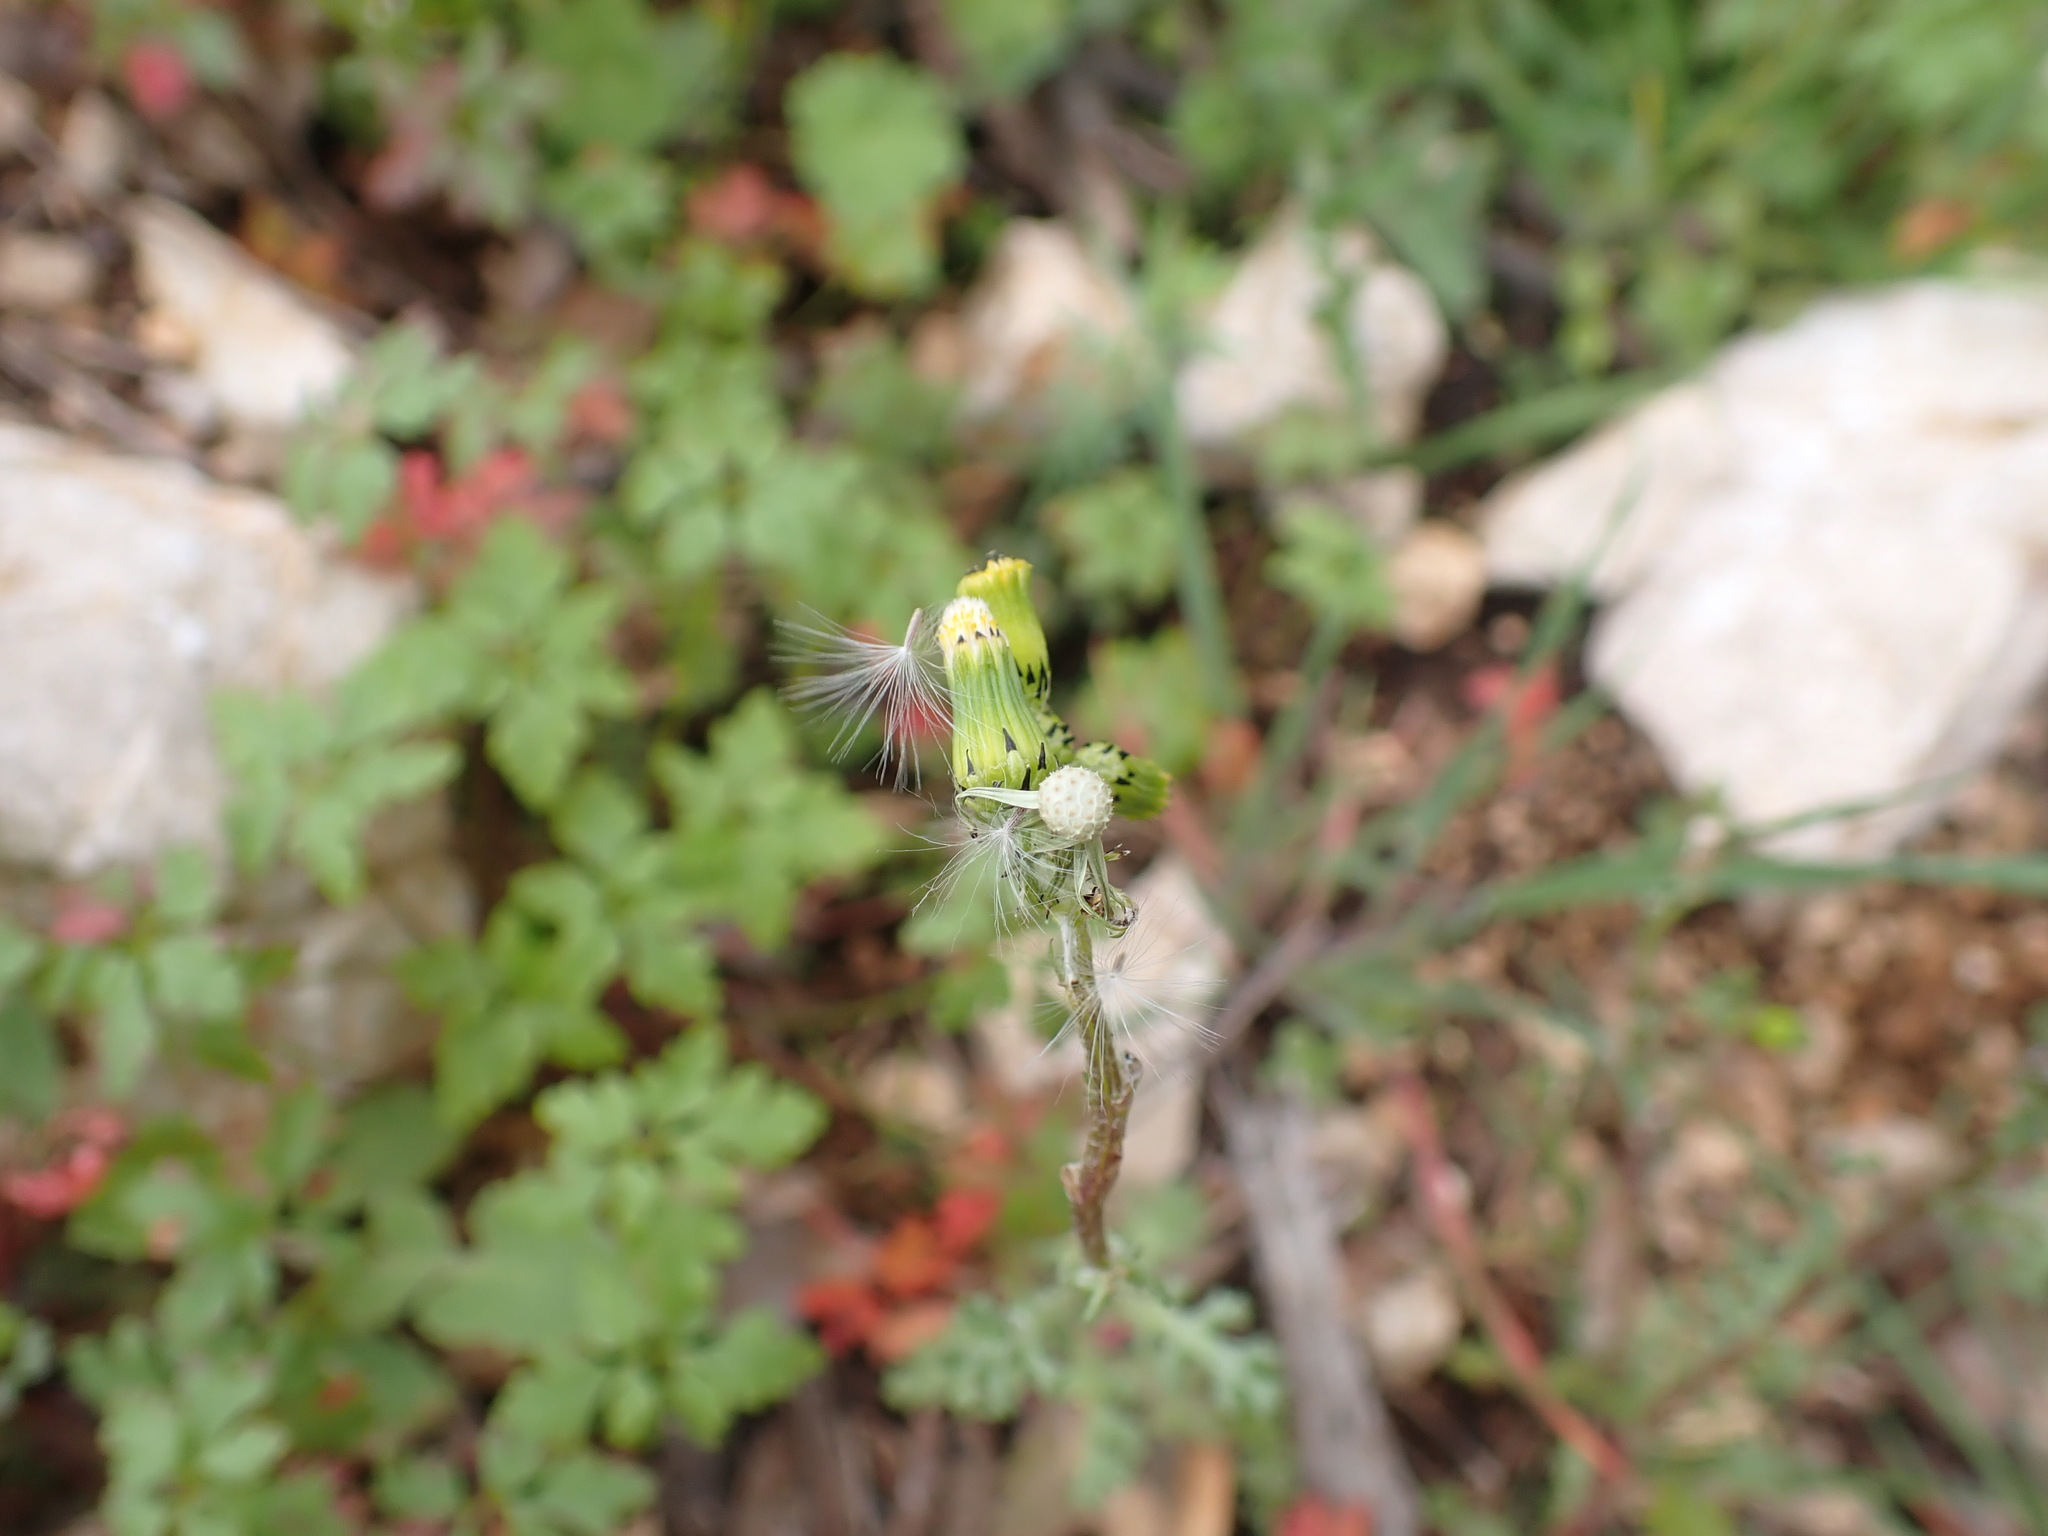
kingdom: Plantae
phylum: Tracheophyta
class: Magnoliopsida
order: Asterales
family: Asteraceae
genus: Senecio
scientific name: Senecio vulgaris
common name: Old-man-in-the-spring
